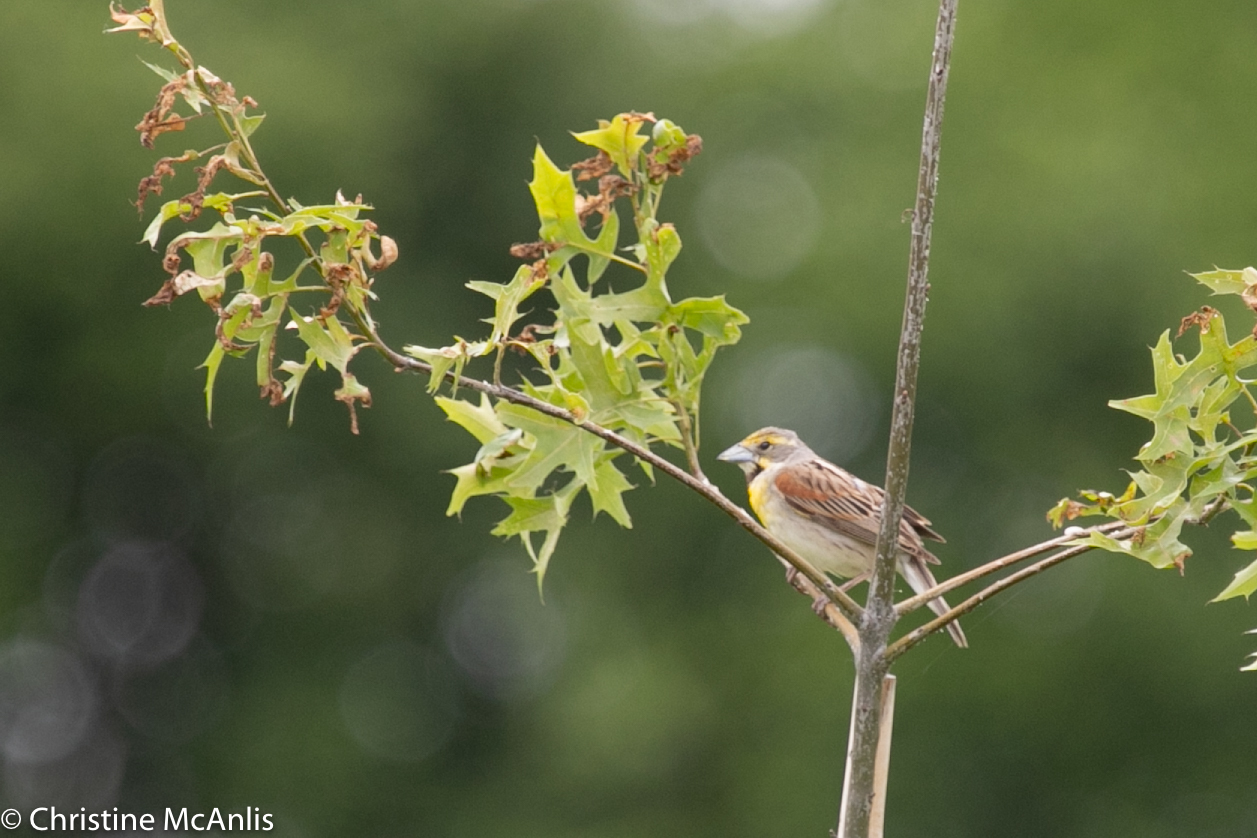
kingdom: Animalia
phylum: Chordata
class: Aves
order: Passeriformes
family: Cardinalidae
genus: Spiza
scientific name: Spiza americana
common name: Dickcissel
